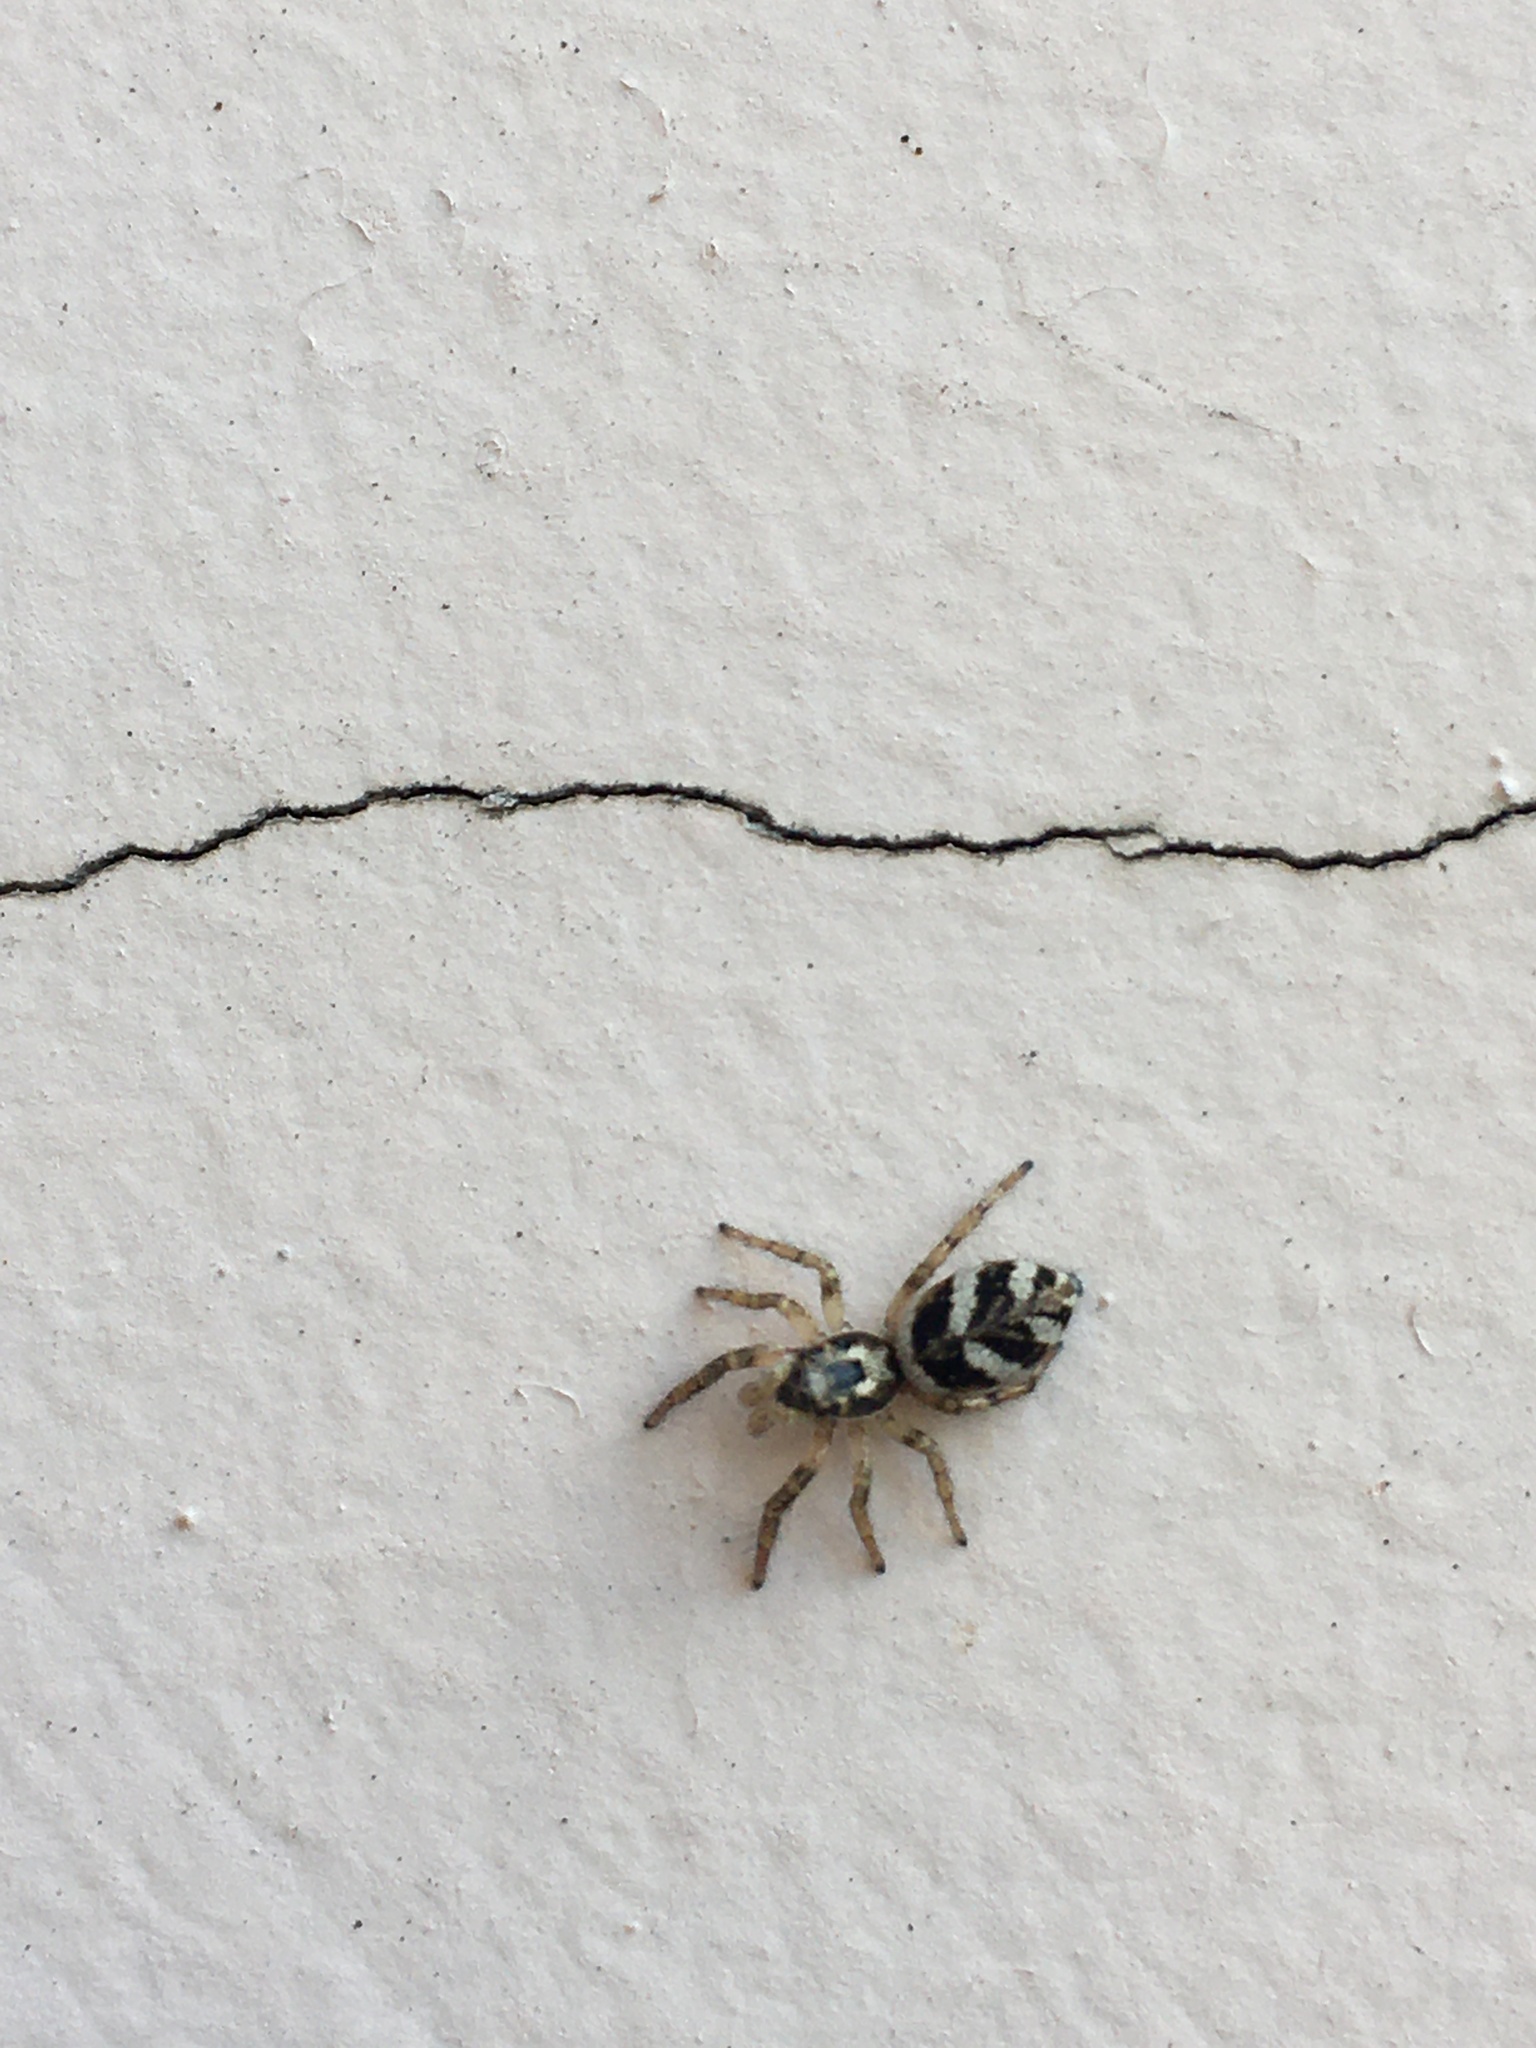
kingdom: Animalia
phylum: Arthropoda
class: Arachnida
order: Araneae
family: Salticidae
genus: Salticus
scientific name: Salticus scenicus
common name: Zebra jumper
